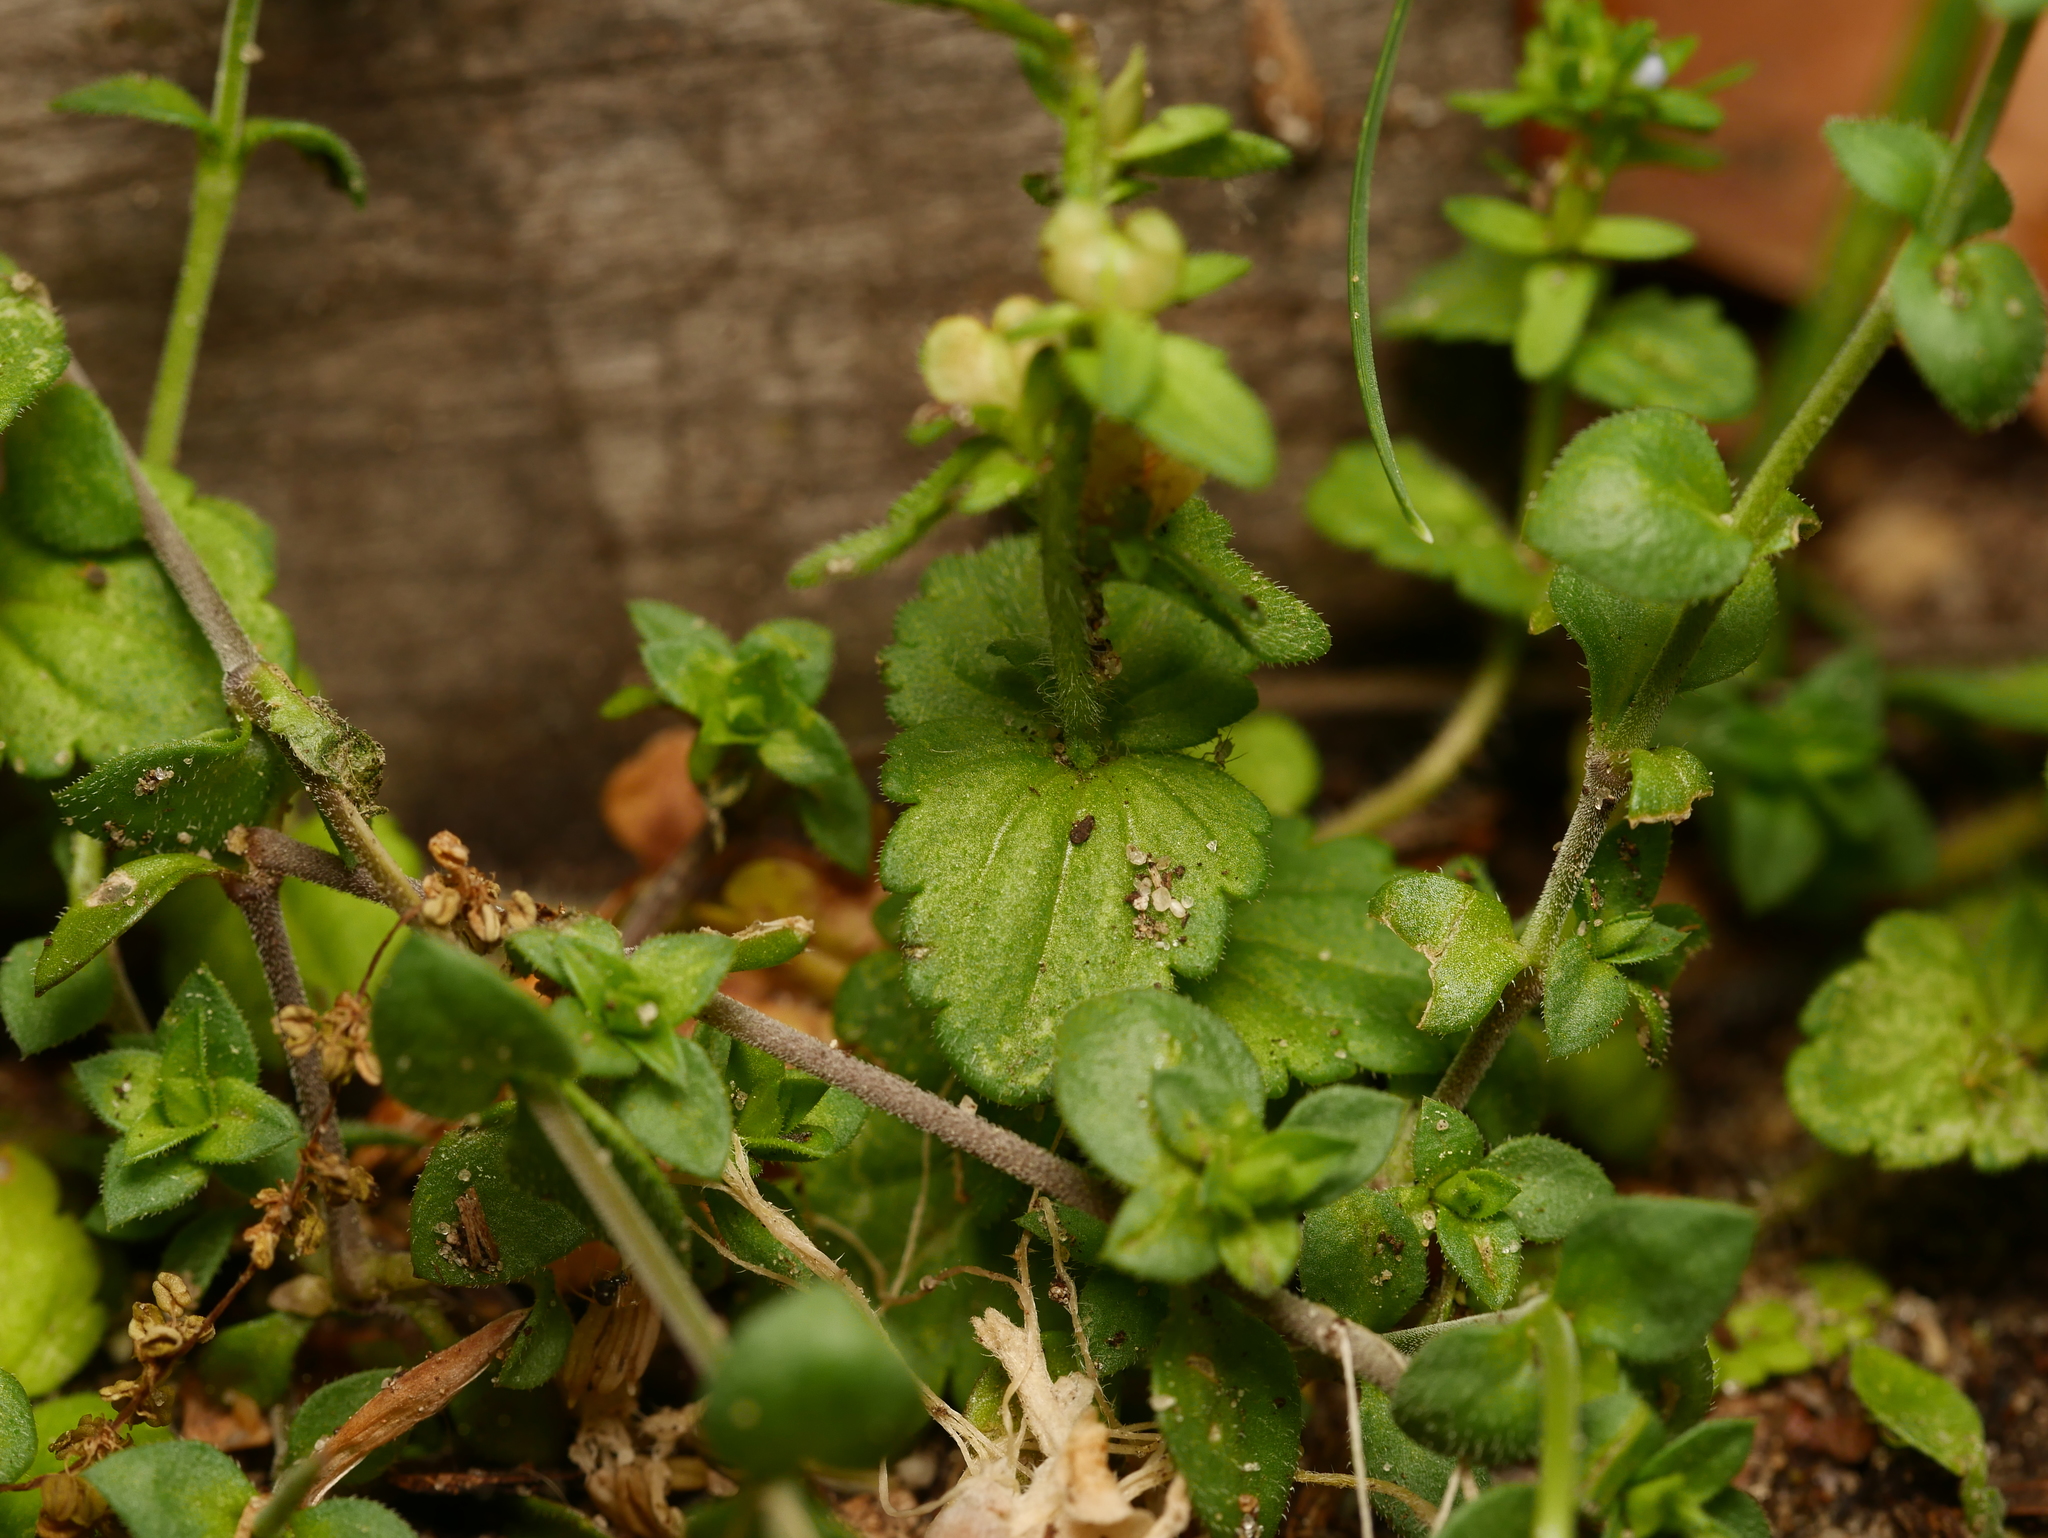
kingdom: Plantae
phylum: Tracheophyta
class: Magnoliopsida
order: Lamiales
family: Plantaginaceae
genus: Veronica
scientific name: Veronica arvensis
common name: Corn speedwell
